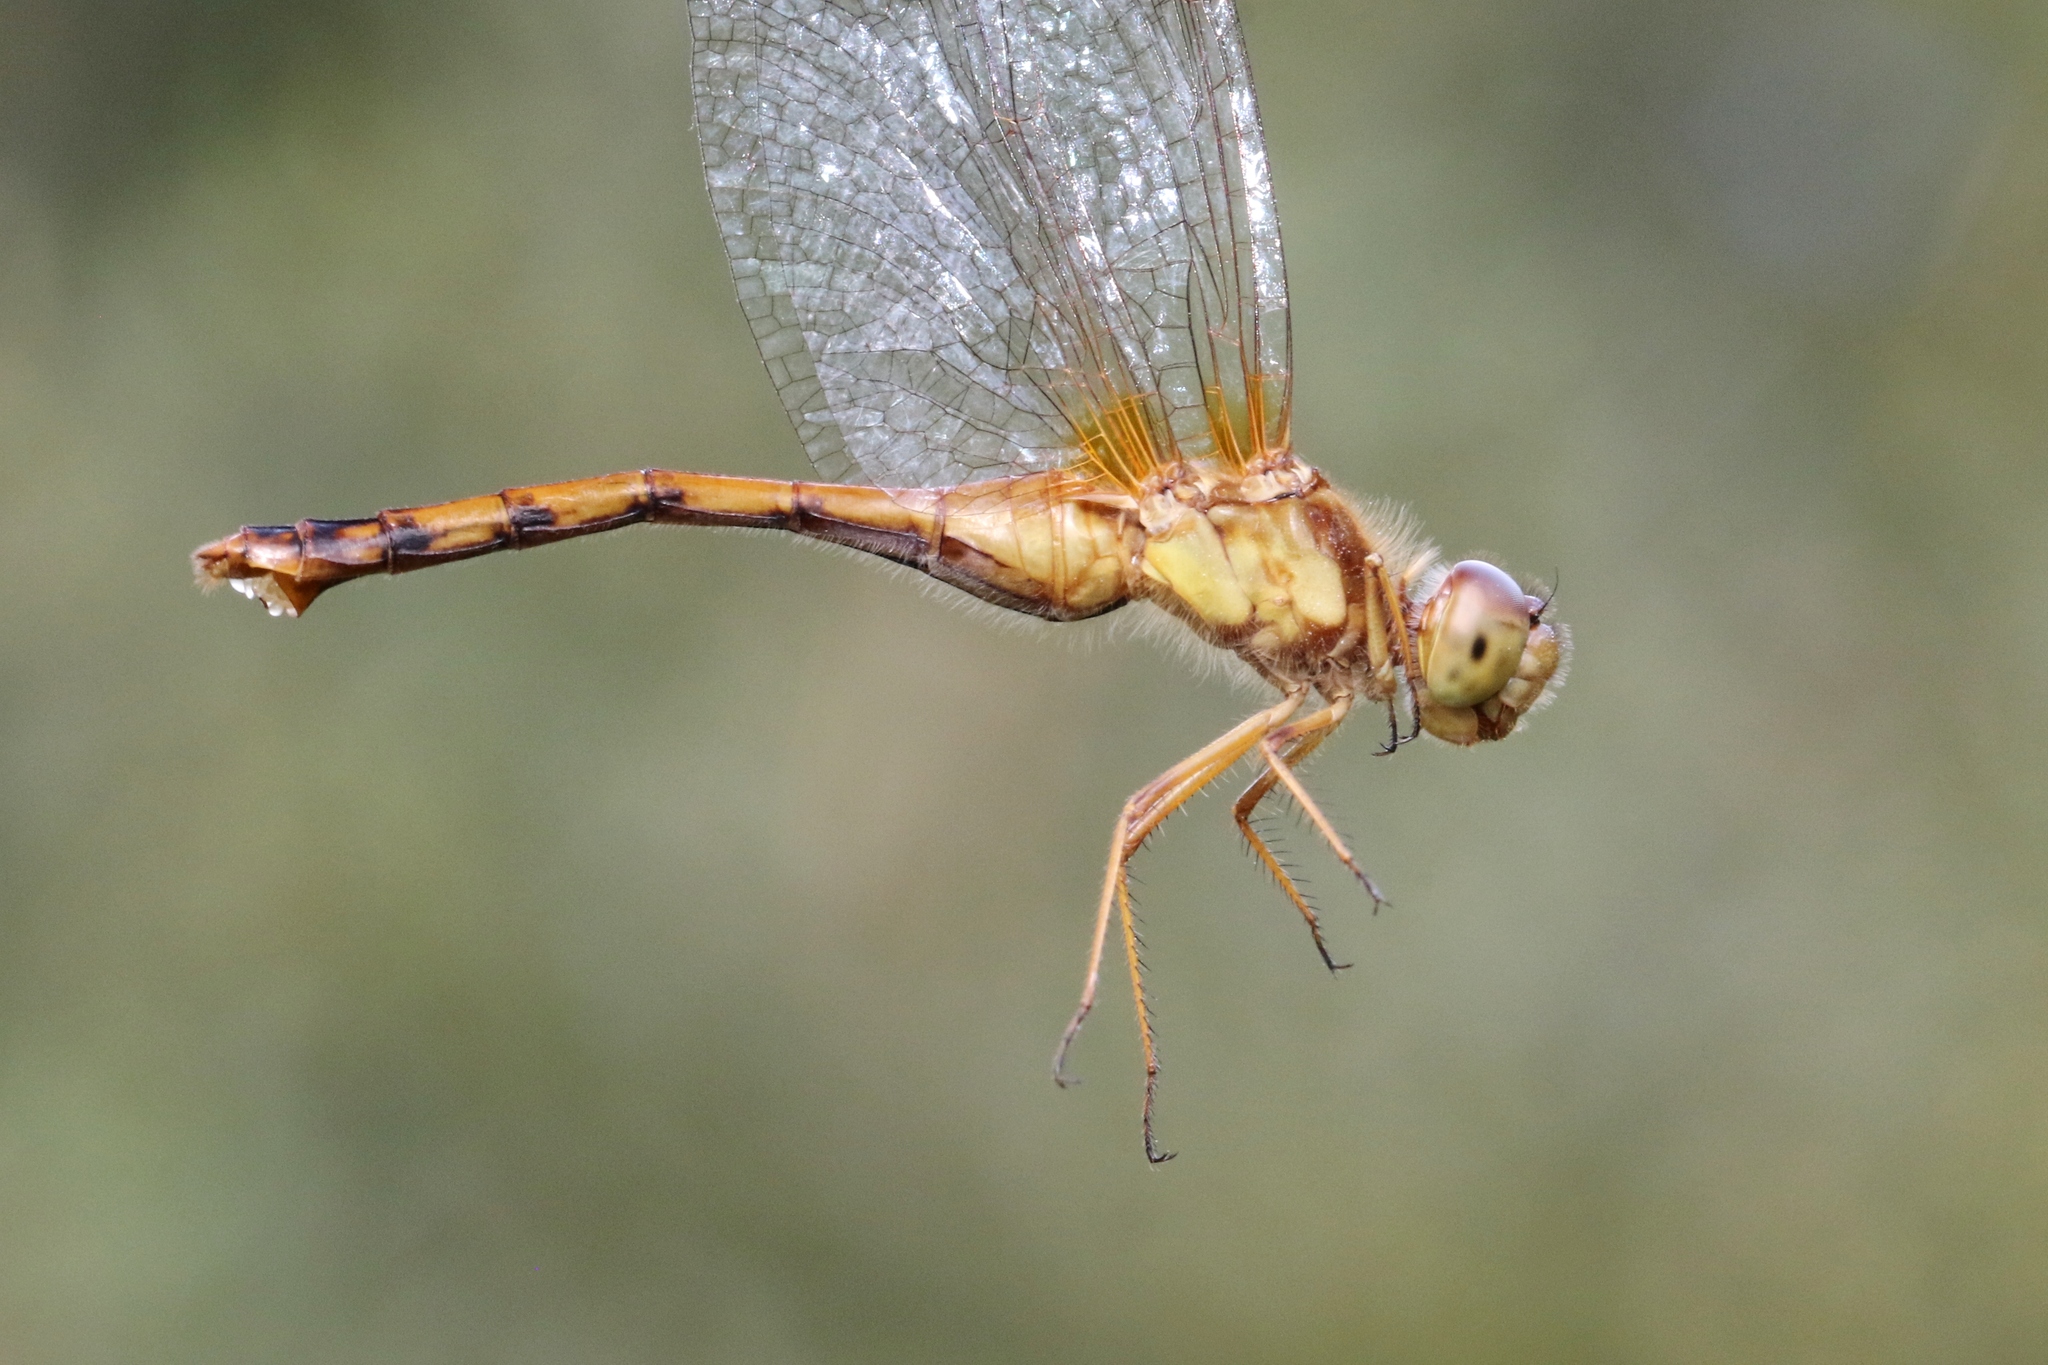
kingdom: Animalia
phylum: Arthropoda
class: Insecta
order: Odonata
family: Libellulidae
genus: Sympetrum
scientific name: Sympetrum vicinum
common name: Autumn meadowhawk
